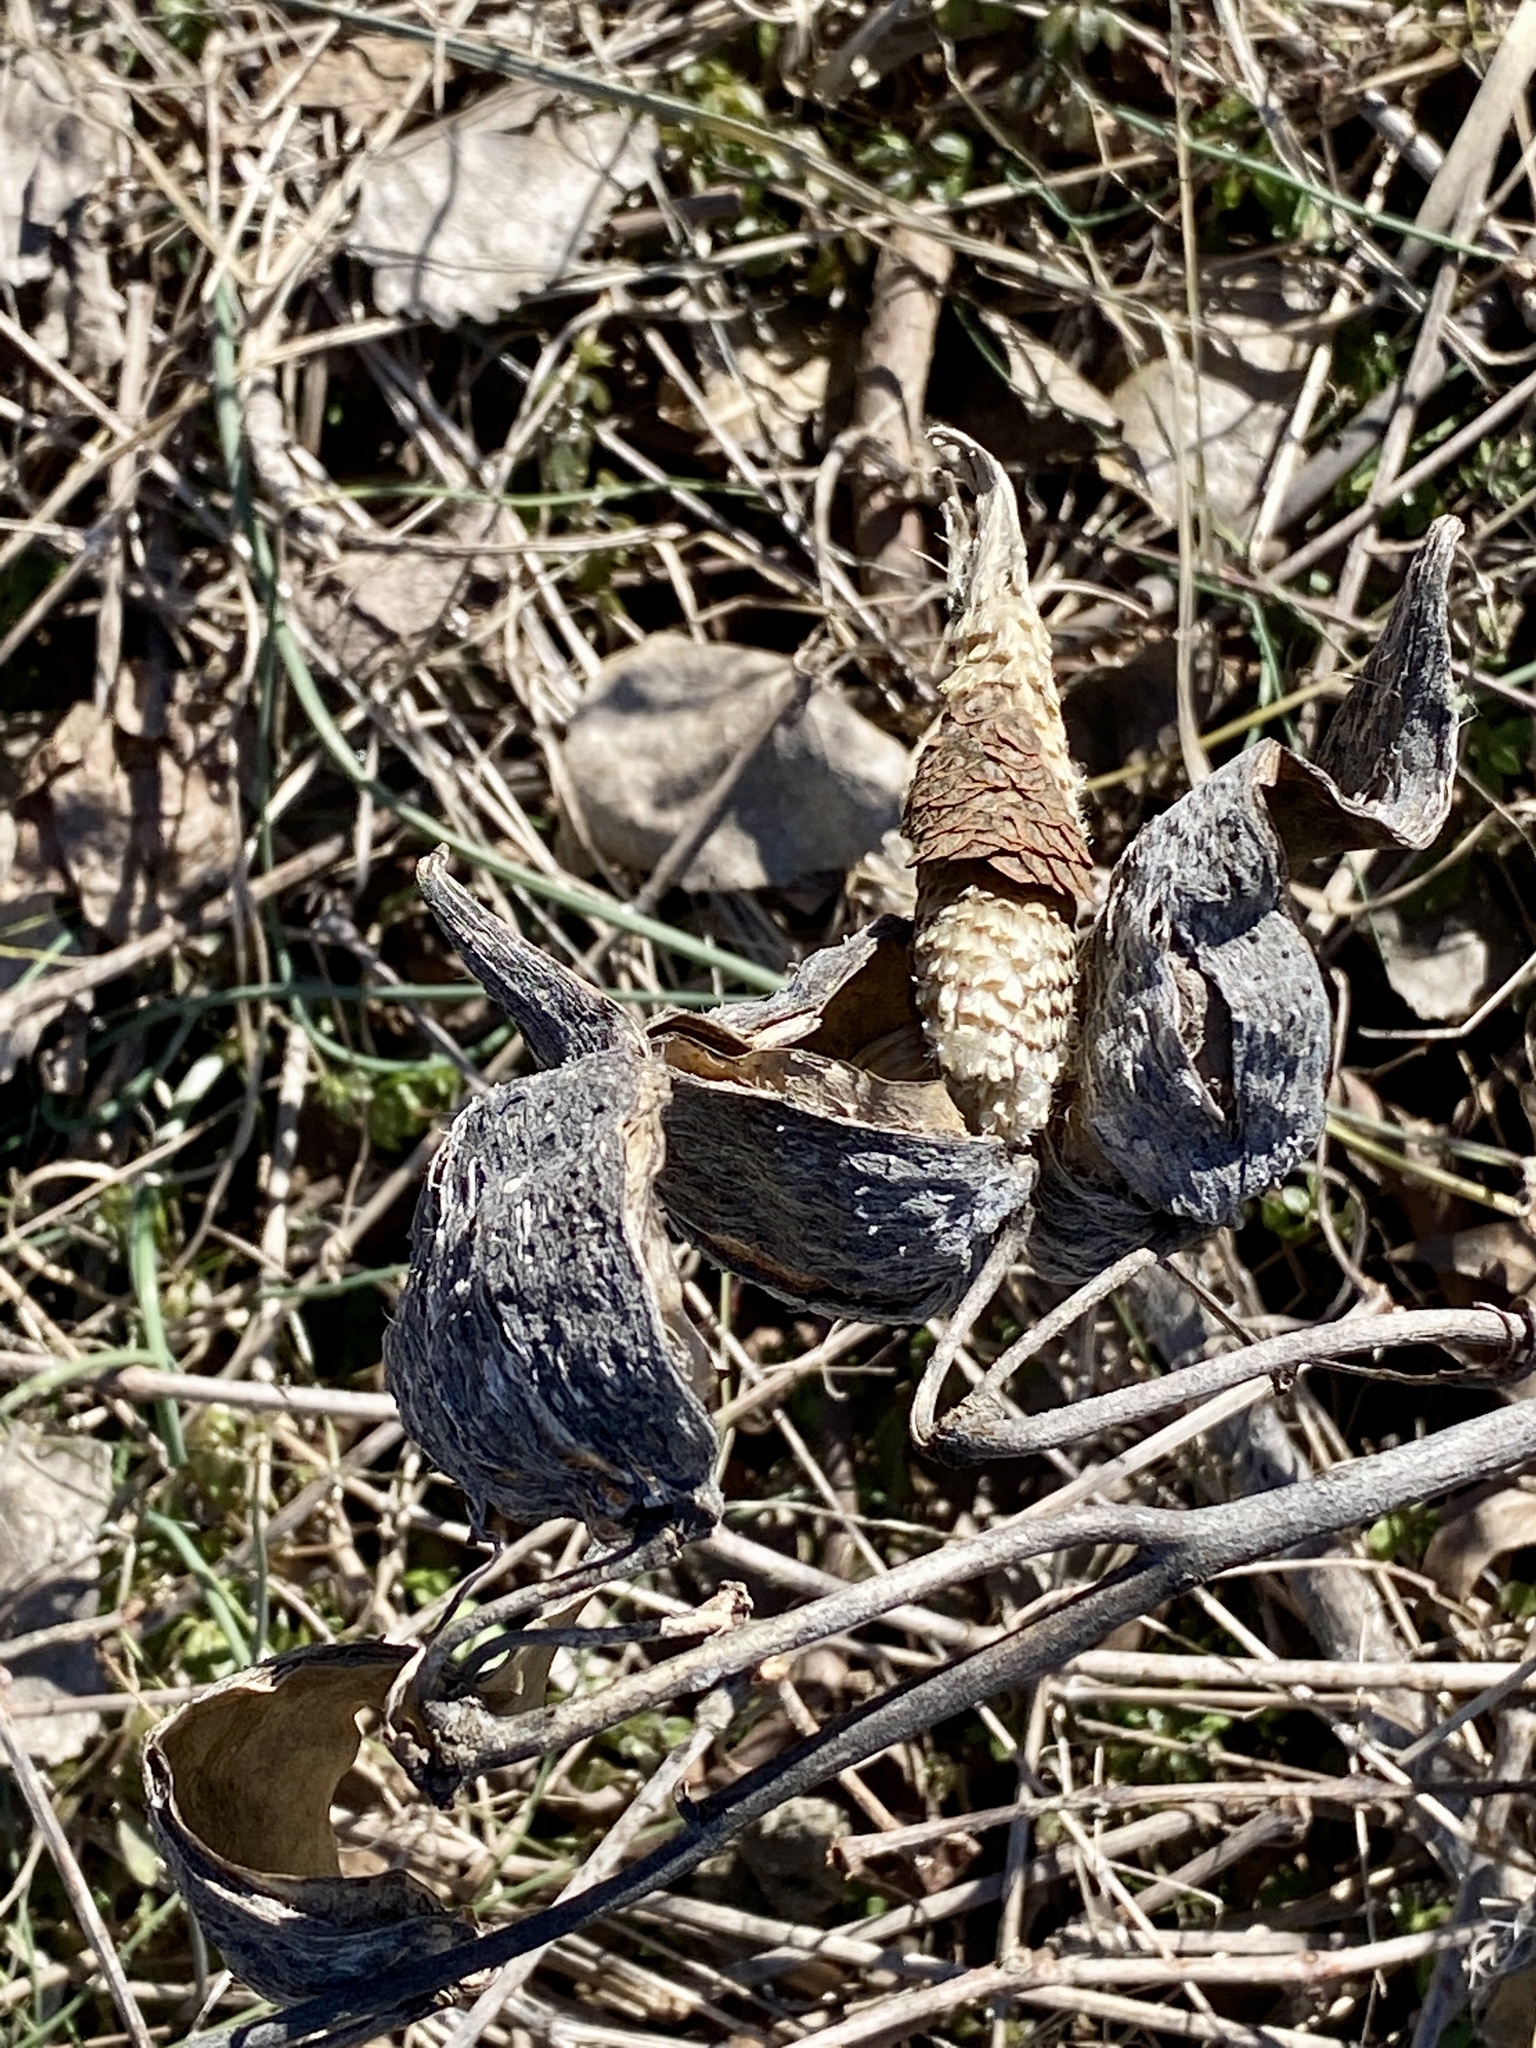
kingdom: Plantae
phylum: Tracheophyta
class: Magnoliopsida
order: Gentianales
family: Apocynaceae
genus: Asclepias
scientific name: Asclepias syriaca
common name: Common milkweed
